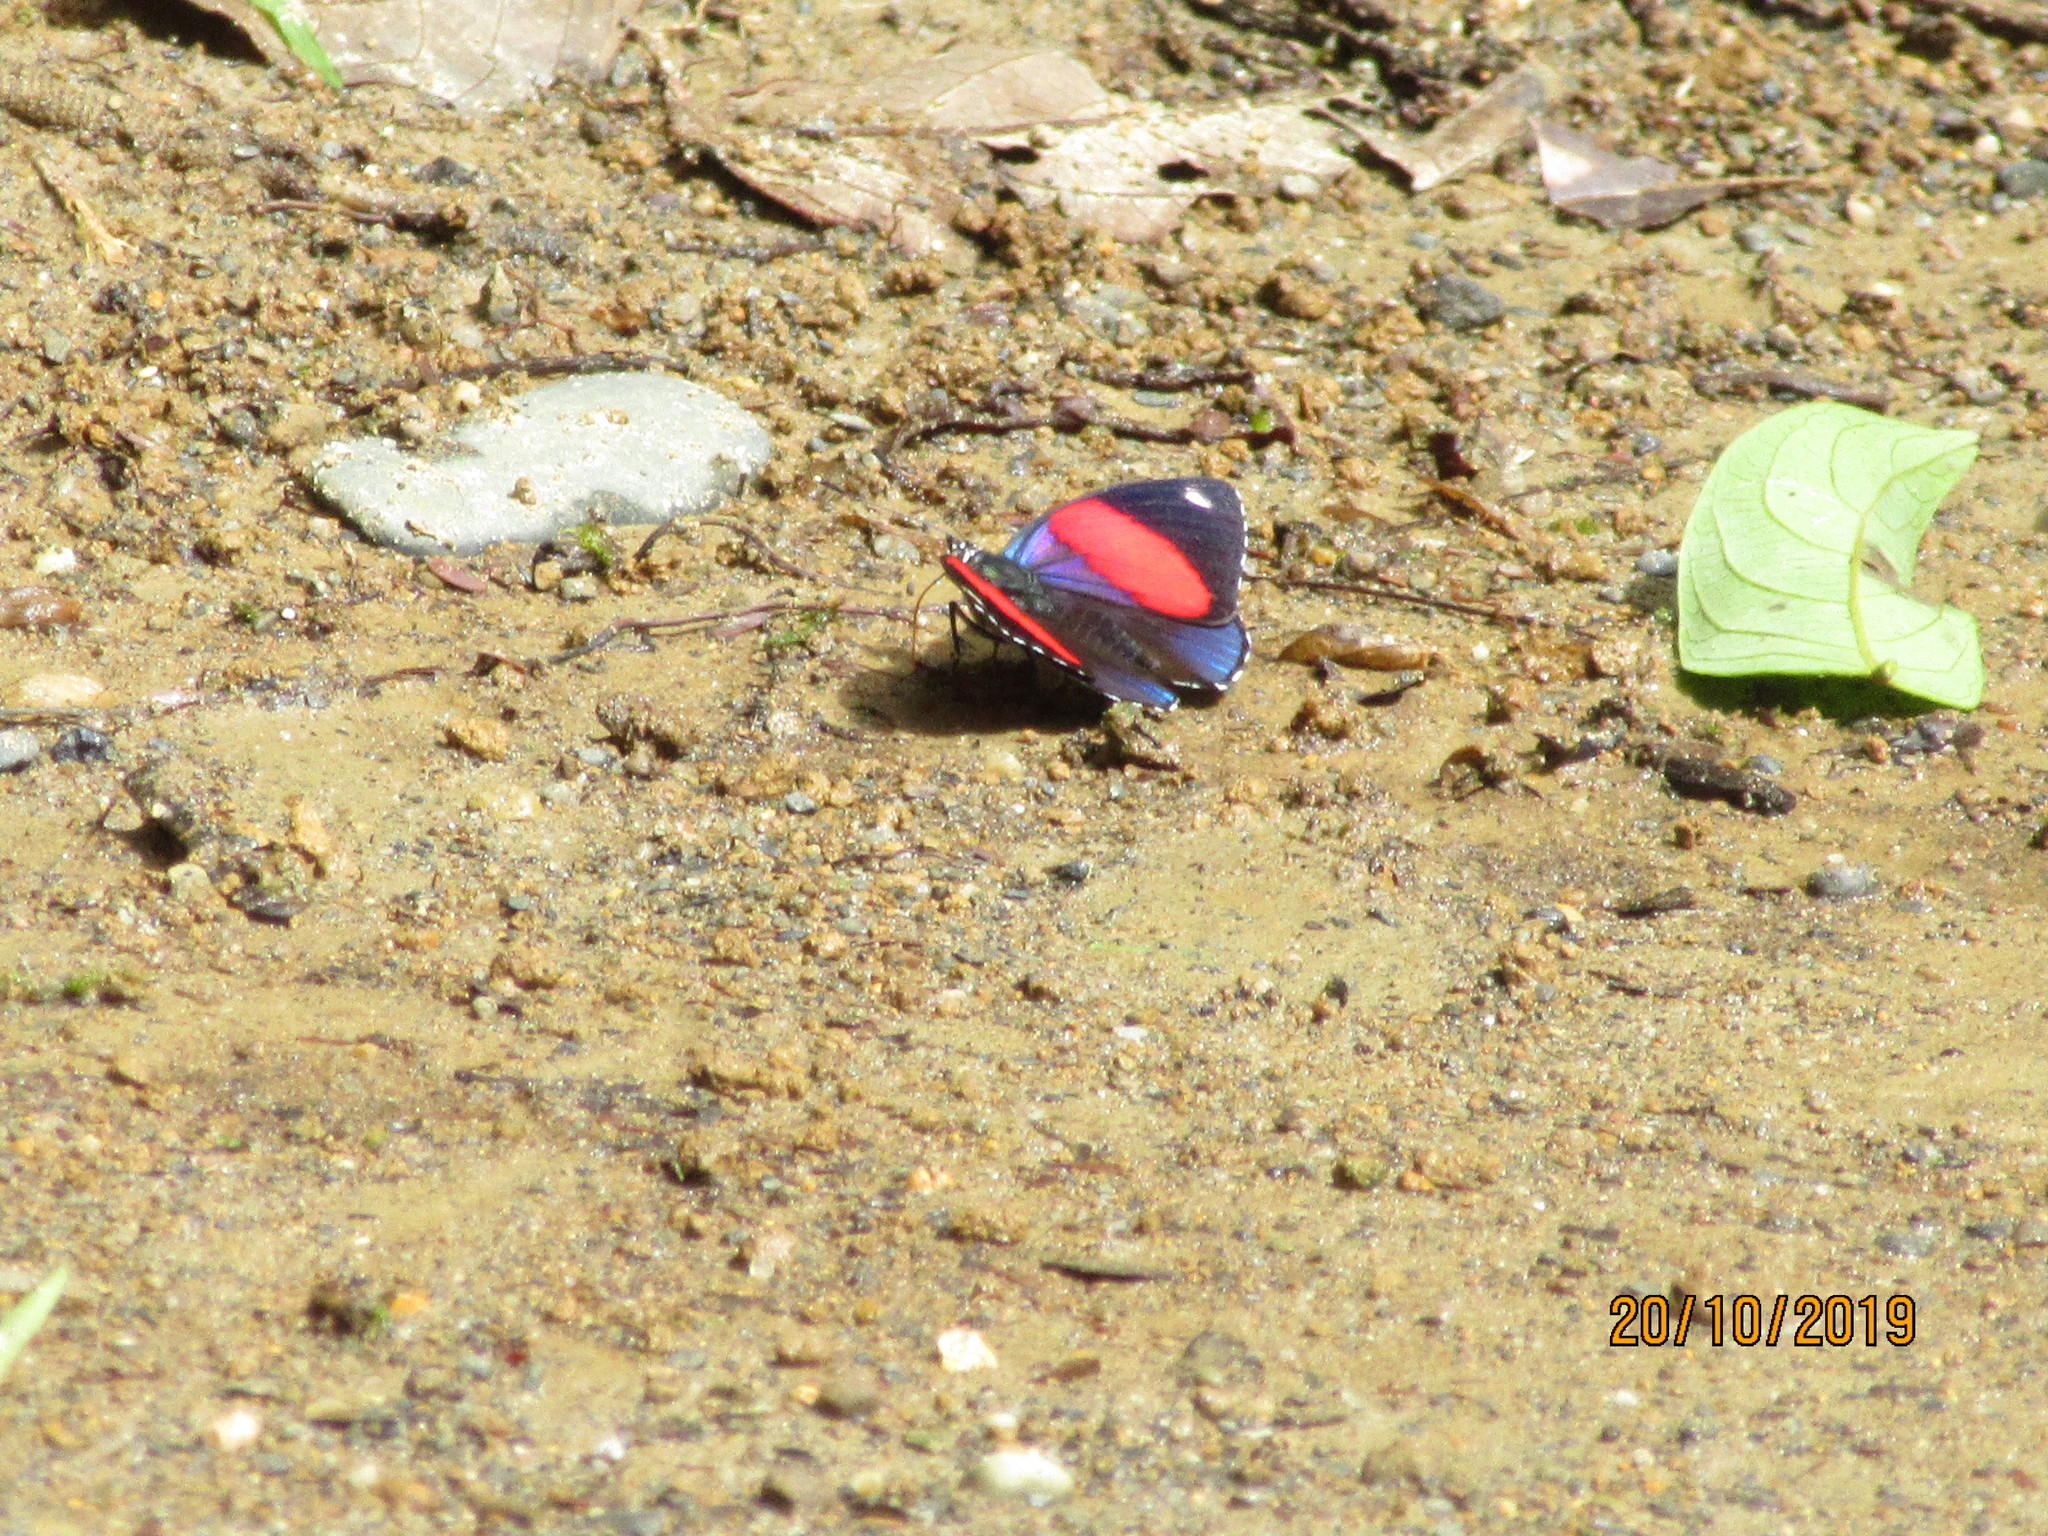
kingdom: Animalia
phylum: Arthropoda
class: Insecta
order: Lepidoptera
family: Nymphalidae
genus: Catagramma
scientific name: Catagramma hystaspes
